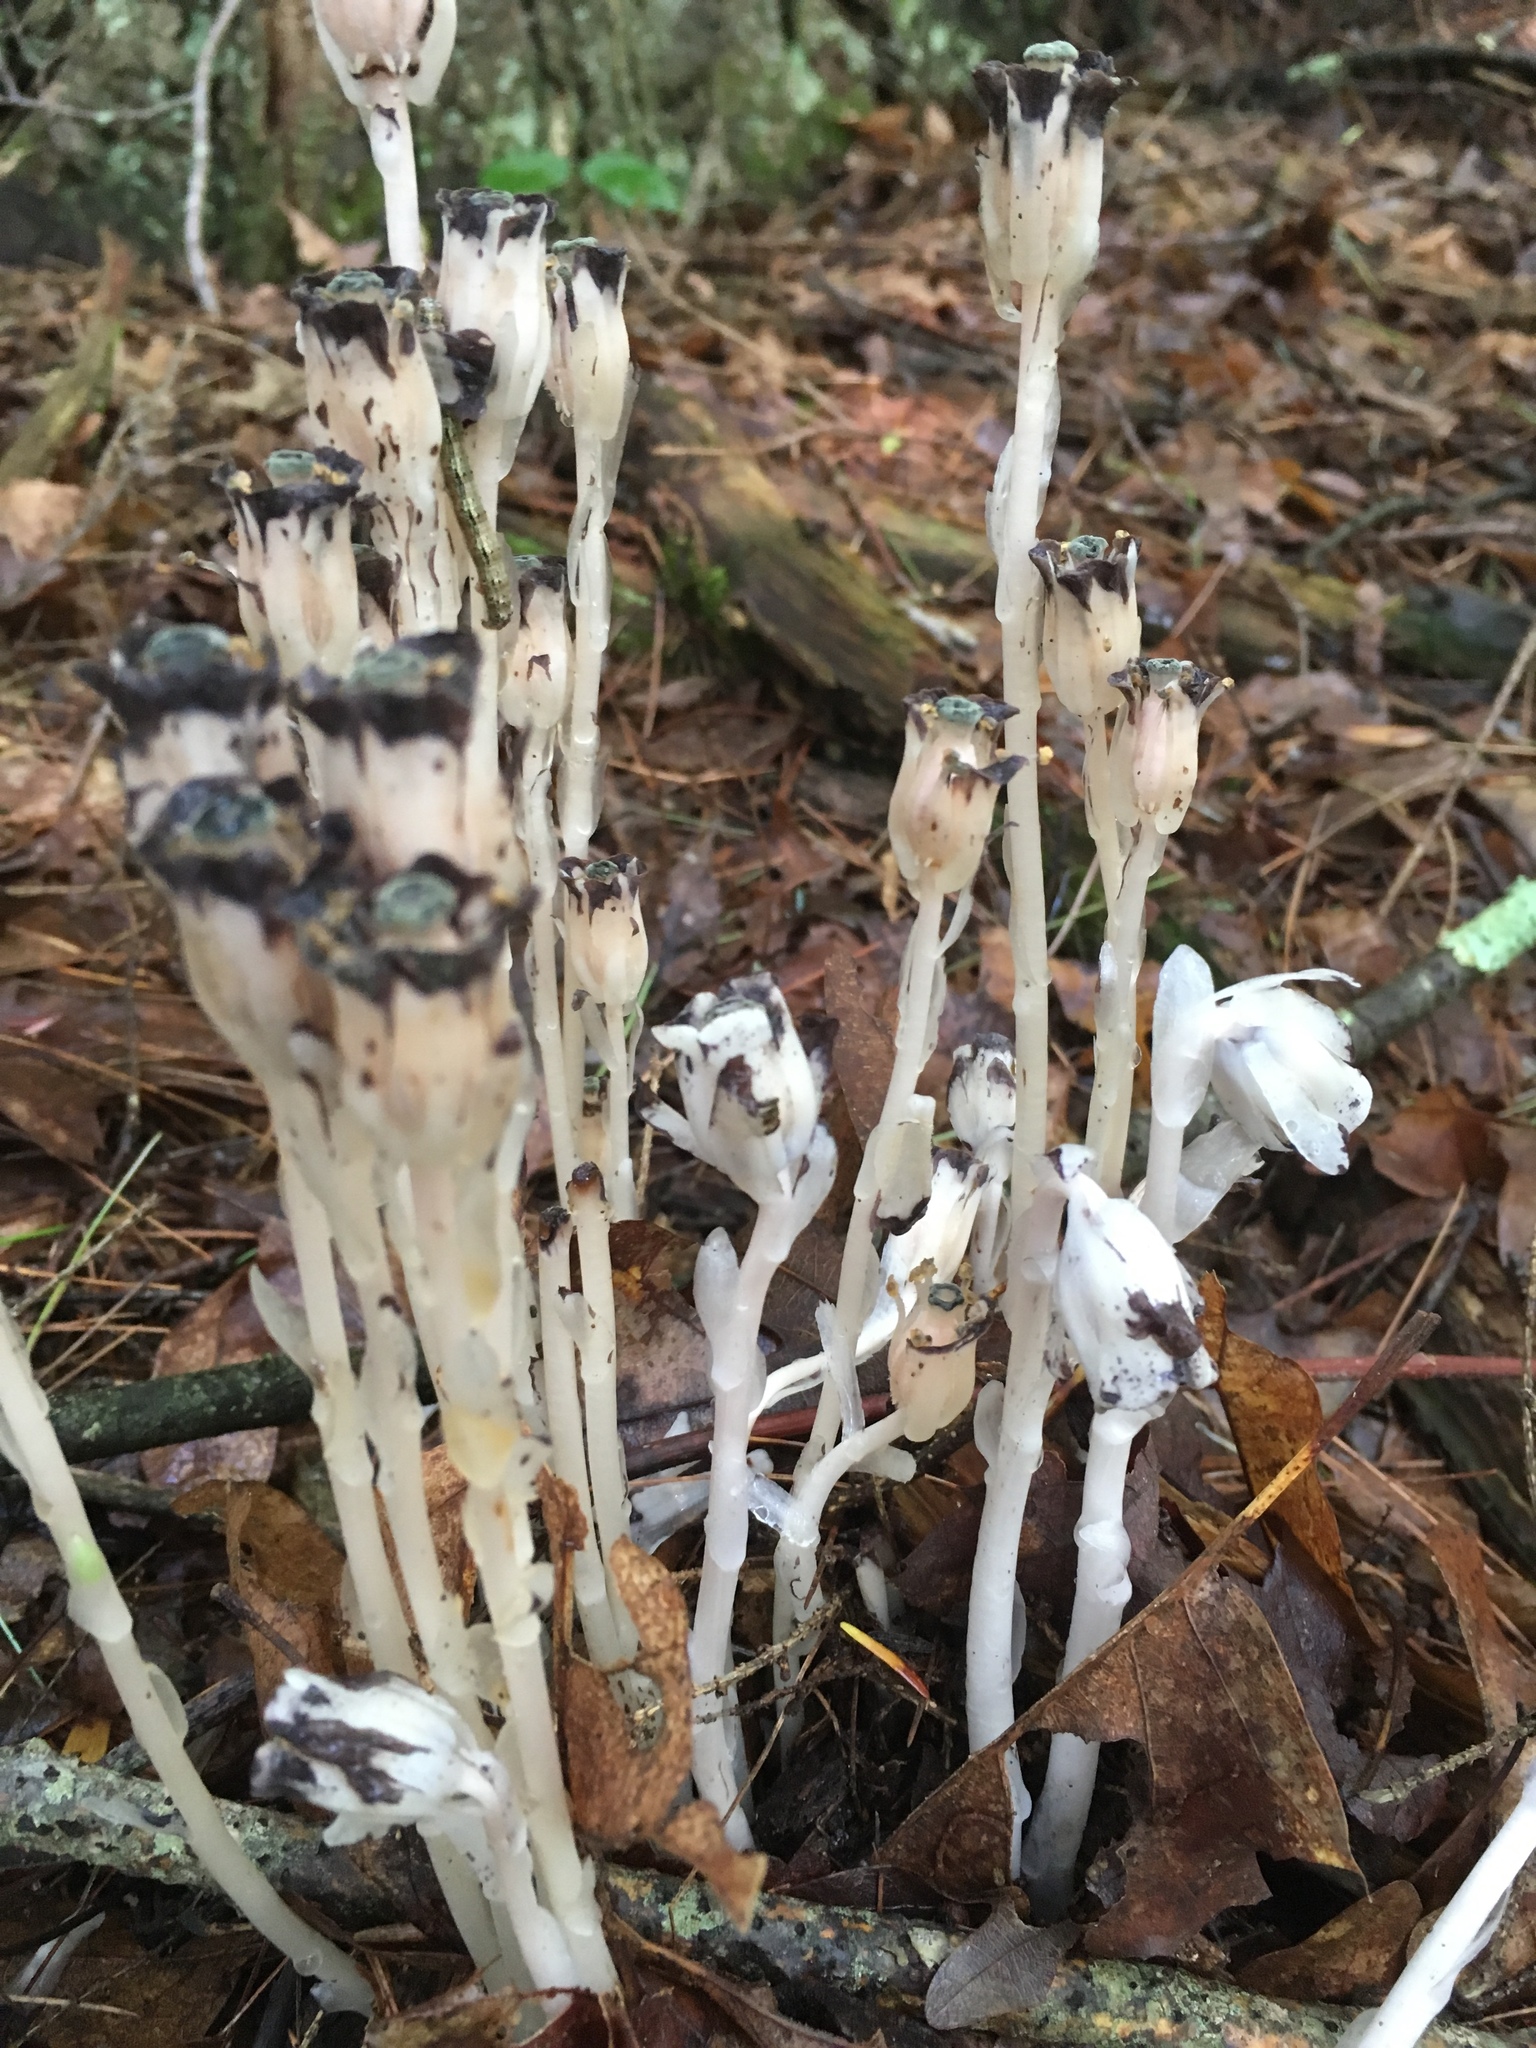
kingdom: Plantae
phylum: Tracheophyta
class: Magnoliopsida
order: Ericales
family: Ericaceae
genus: Monotropa
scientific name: Monotropa uniflora
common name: Convulsion root
